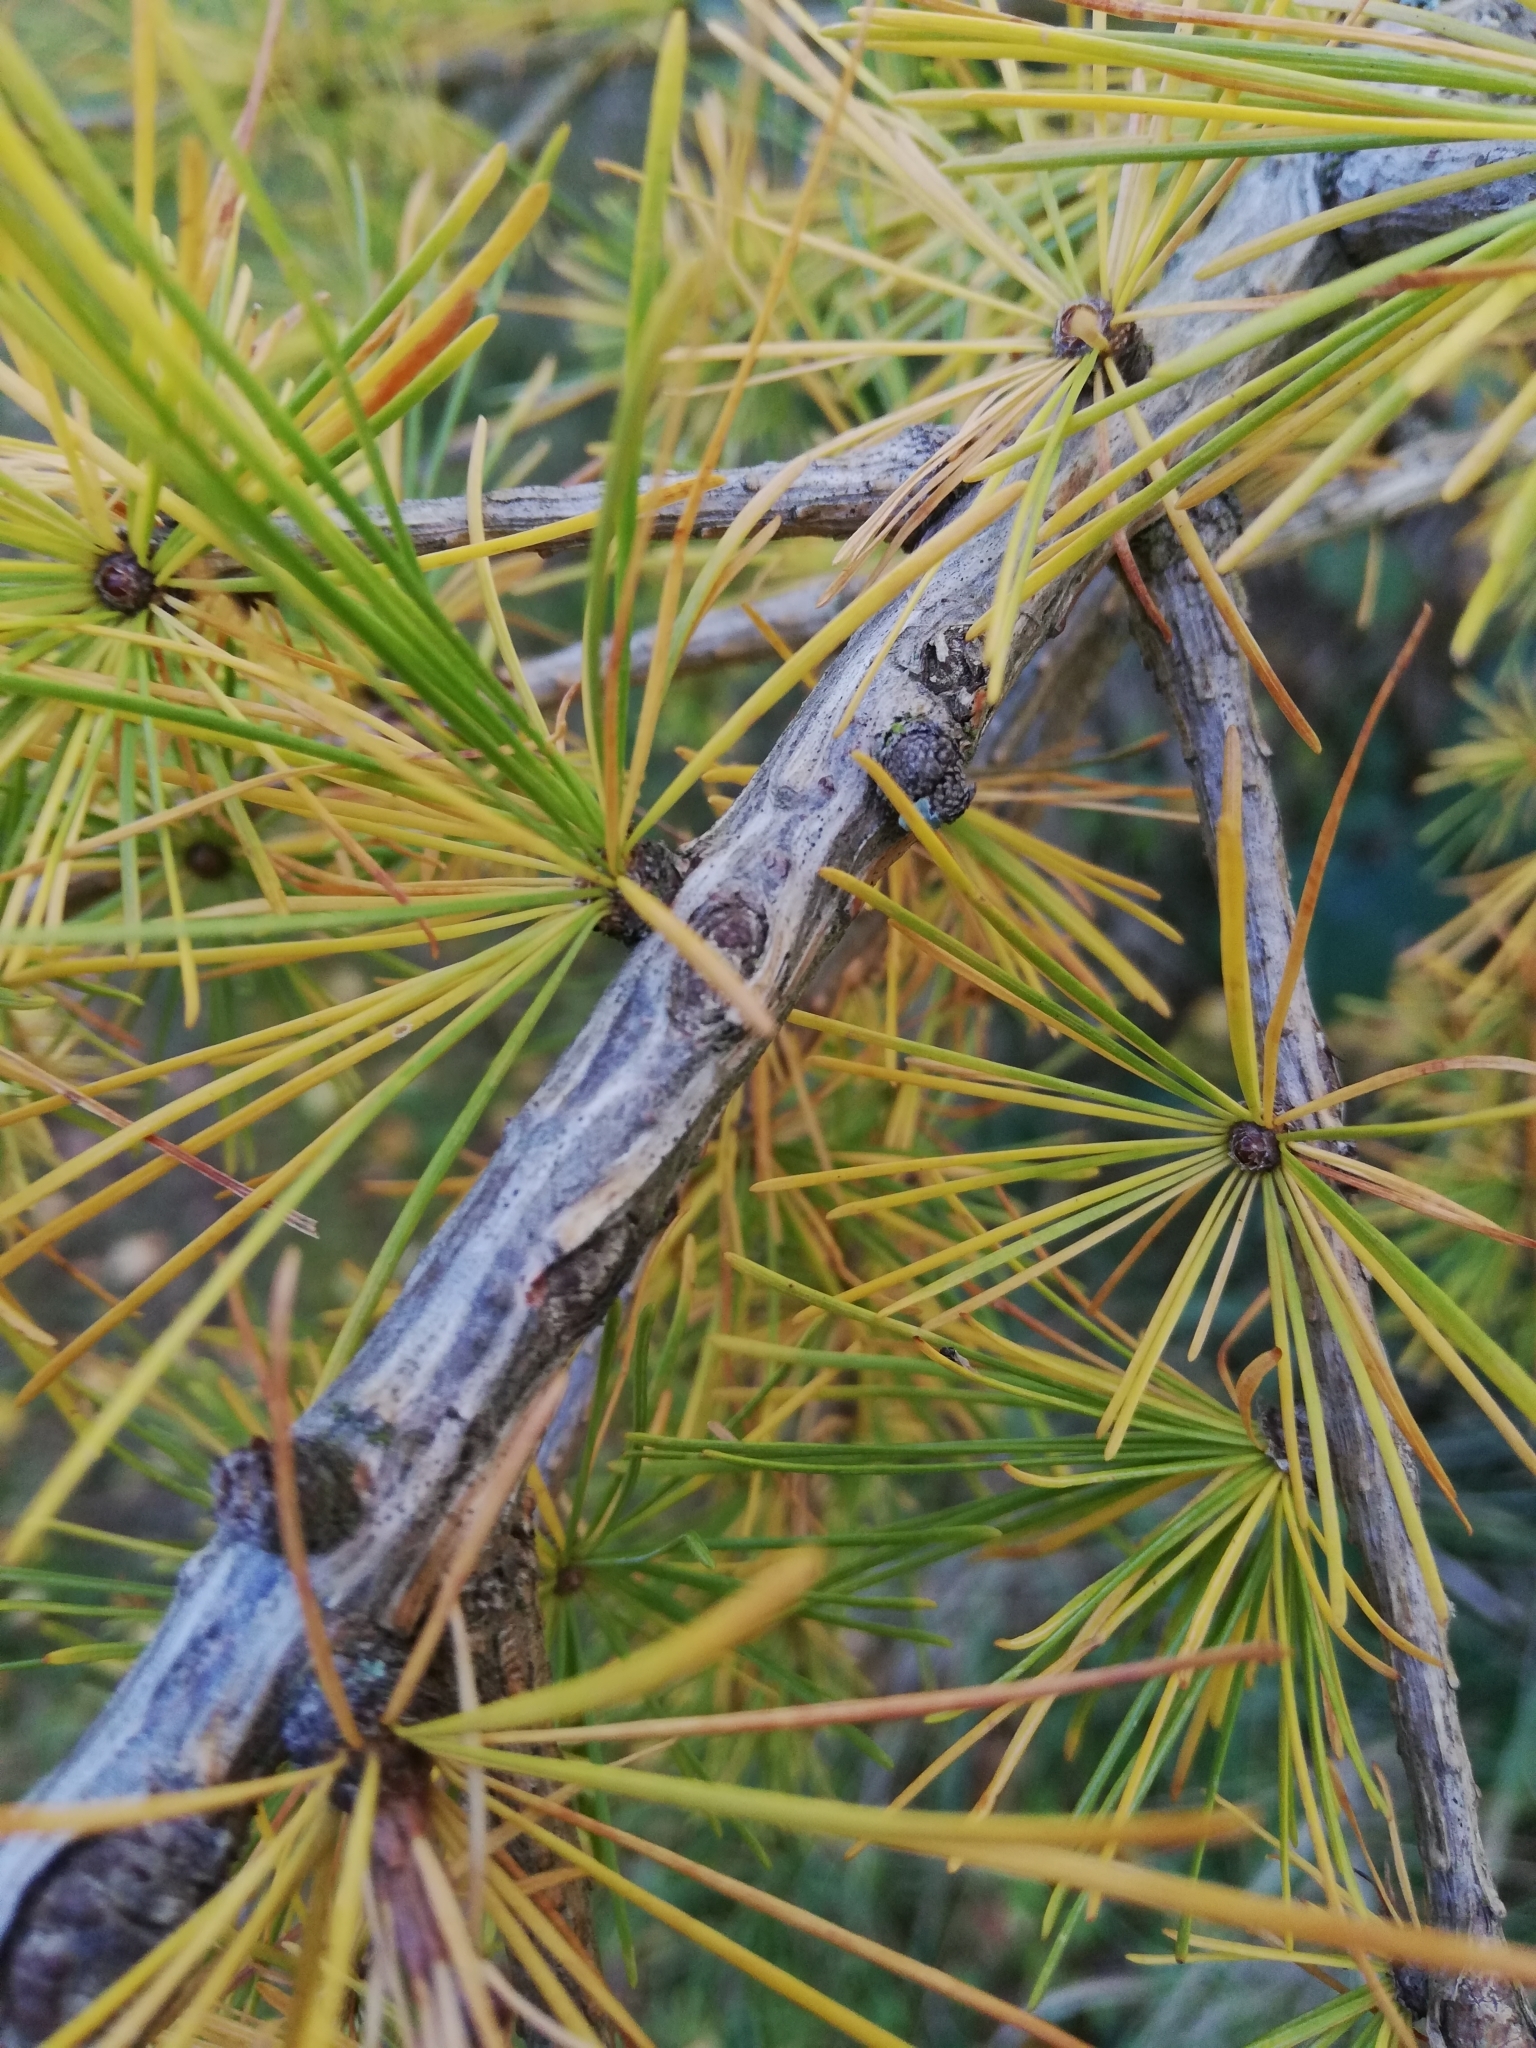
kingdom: Plantae
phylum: Tracheophyta
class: Pinopsida
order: Pinales
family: Pinaceae
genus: Larix
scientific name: Larix decidua
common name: European larch
